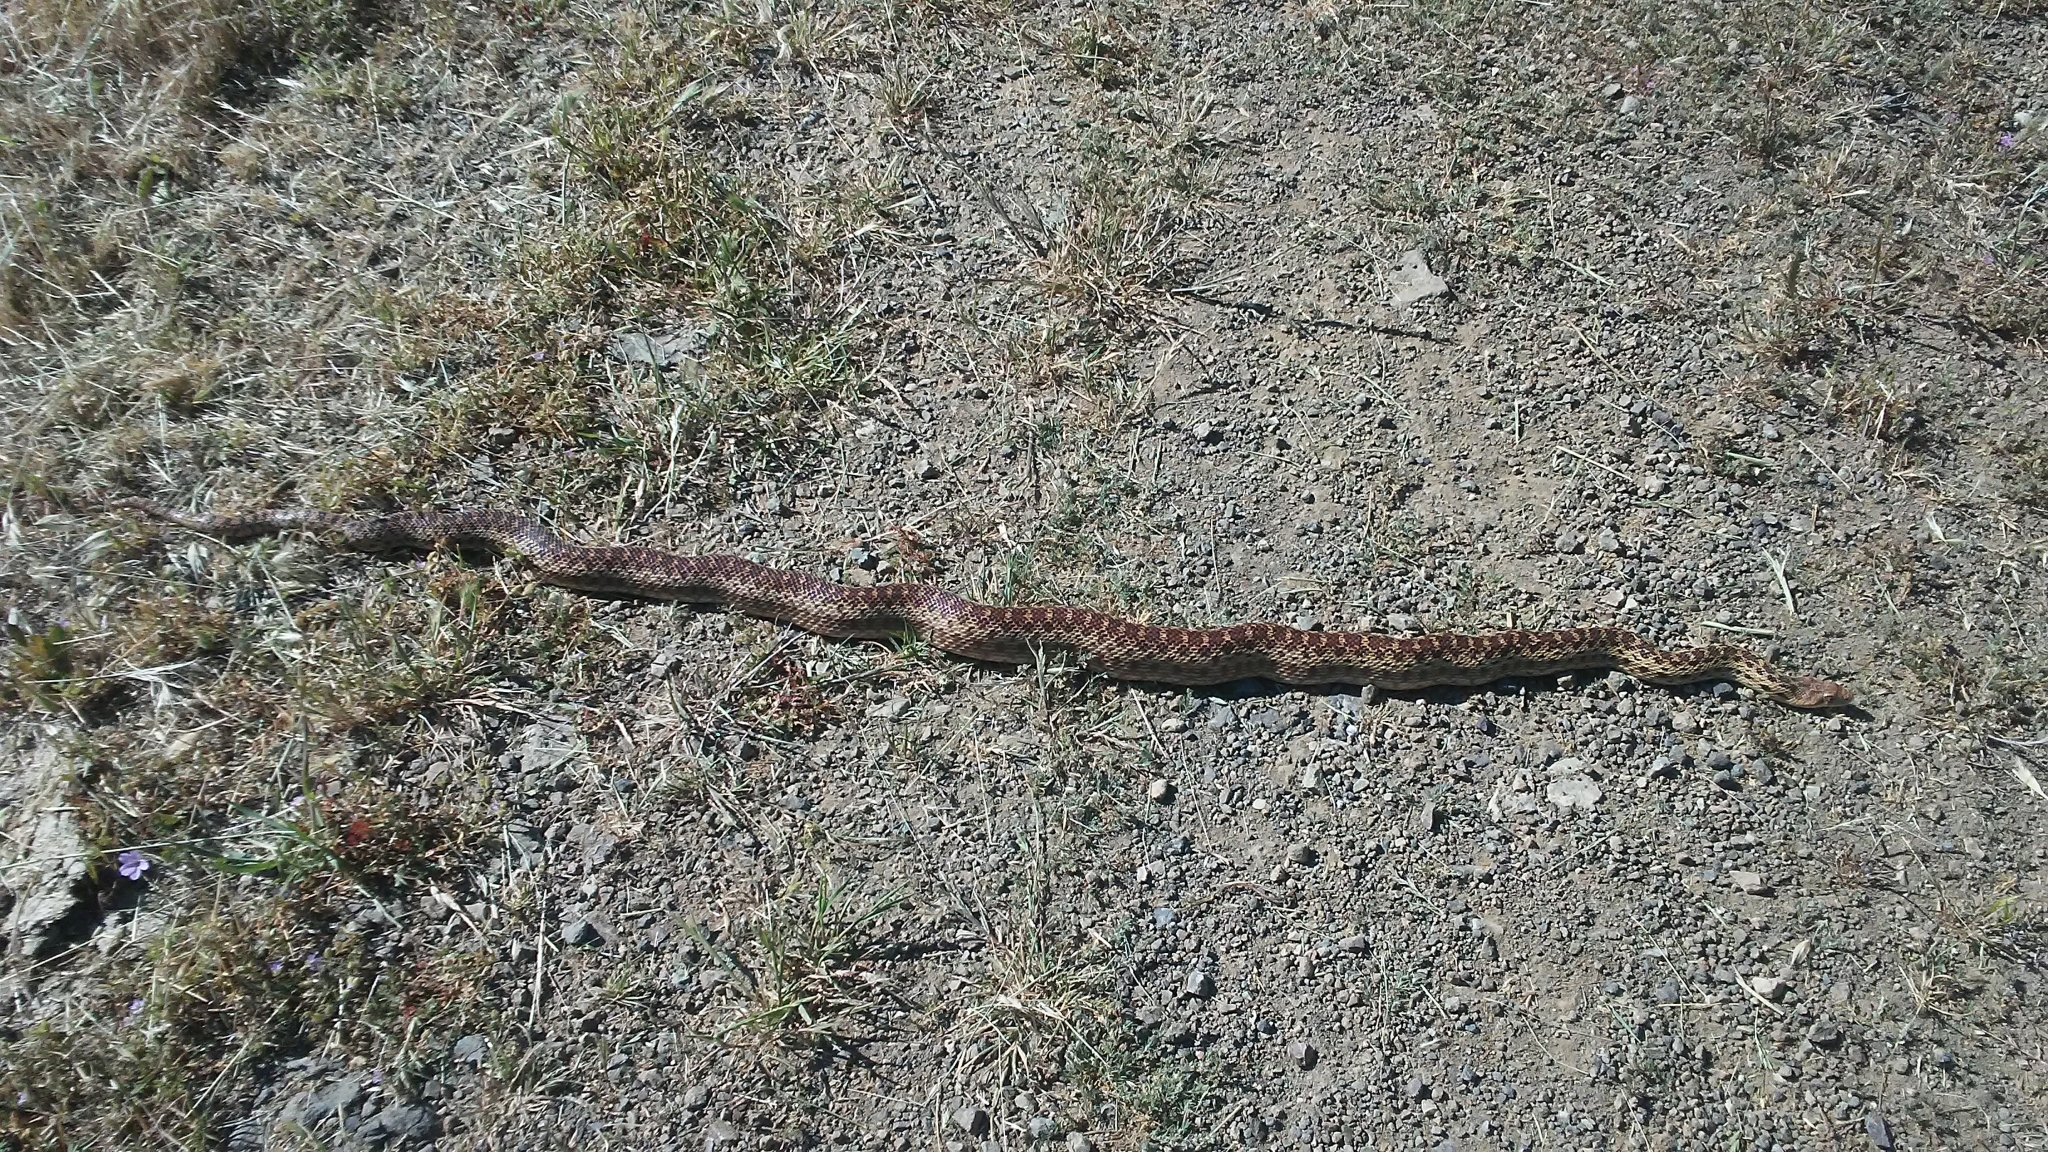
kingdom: Animalia
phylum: Chordata
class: Squamata
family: Colubridae
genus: Pituophis
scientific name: Pituophis catenifer
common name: Gopher snake
